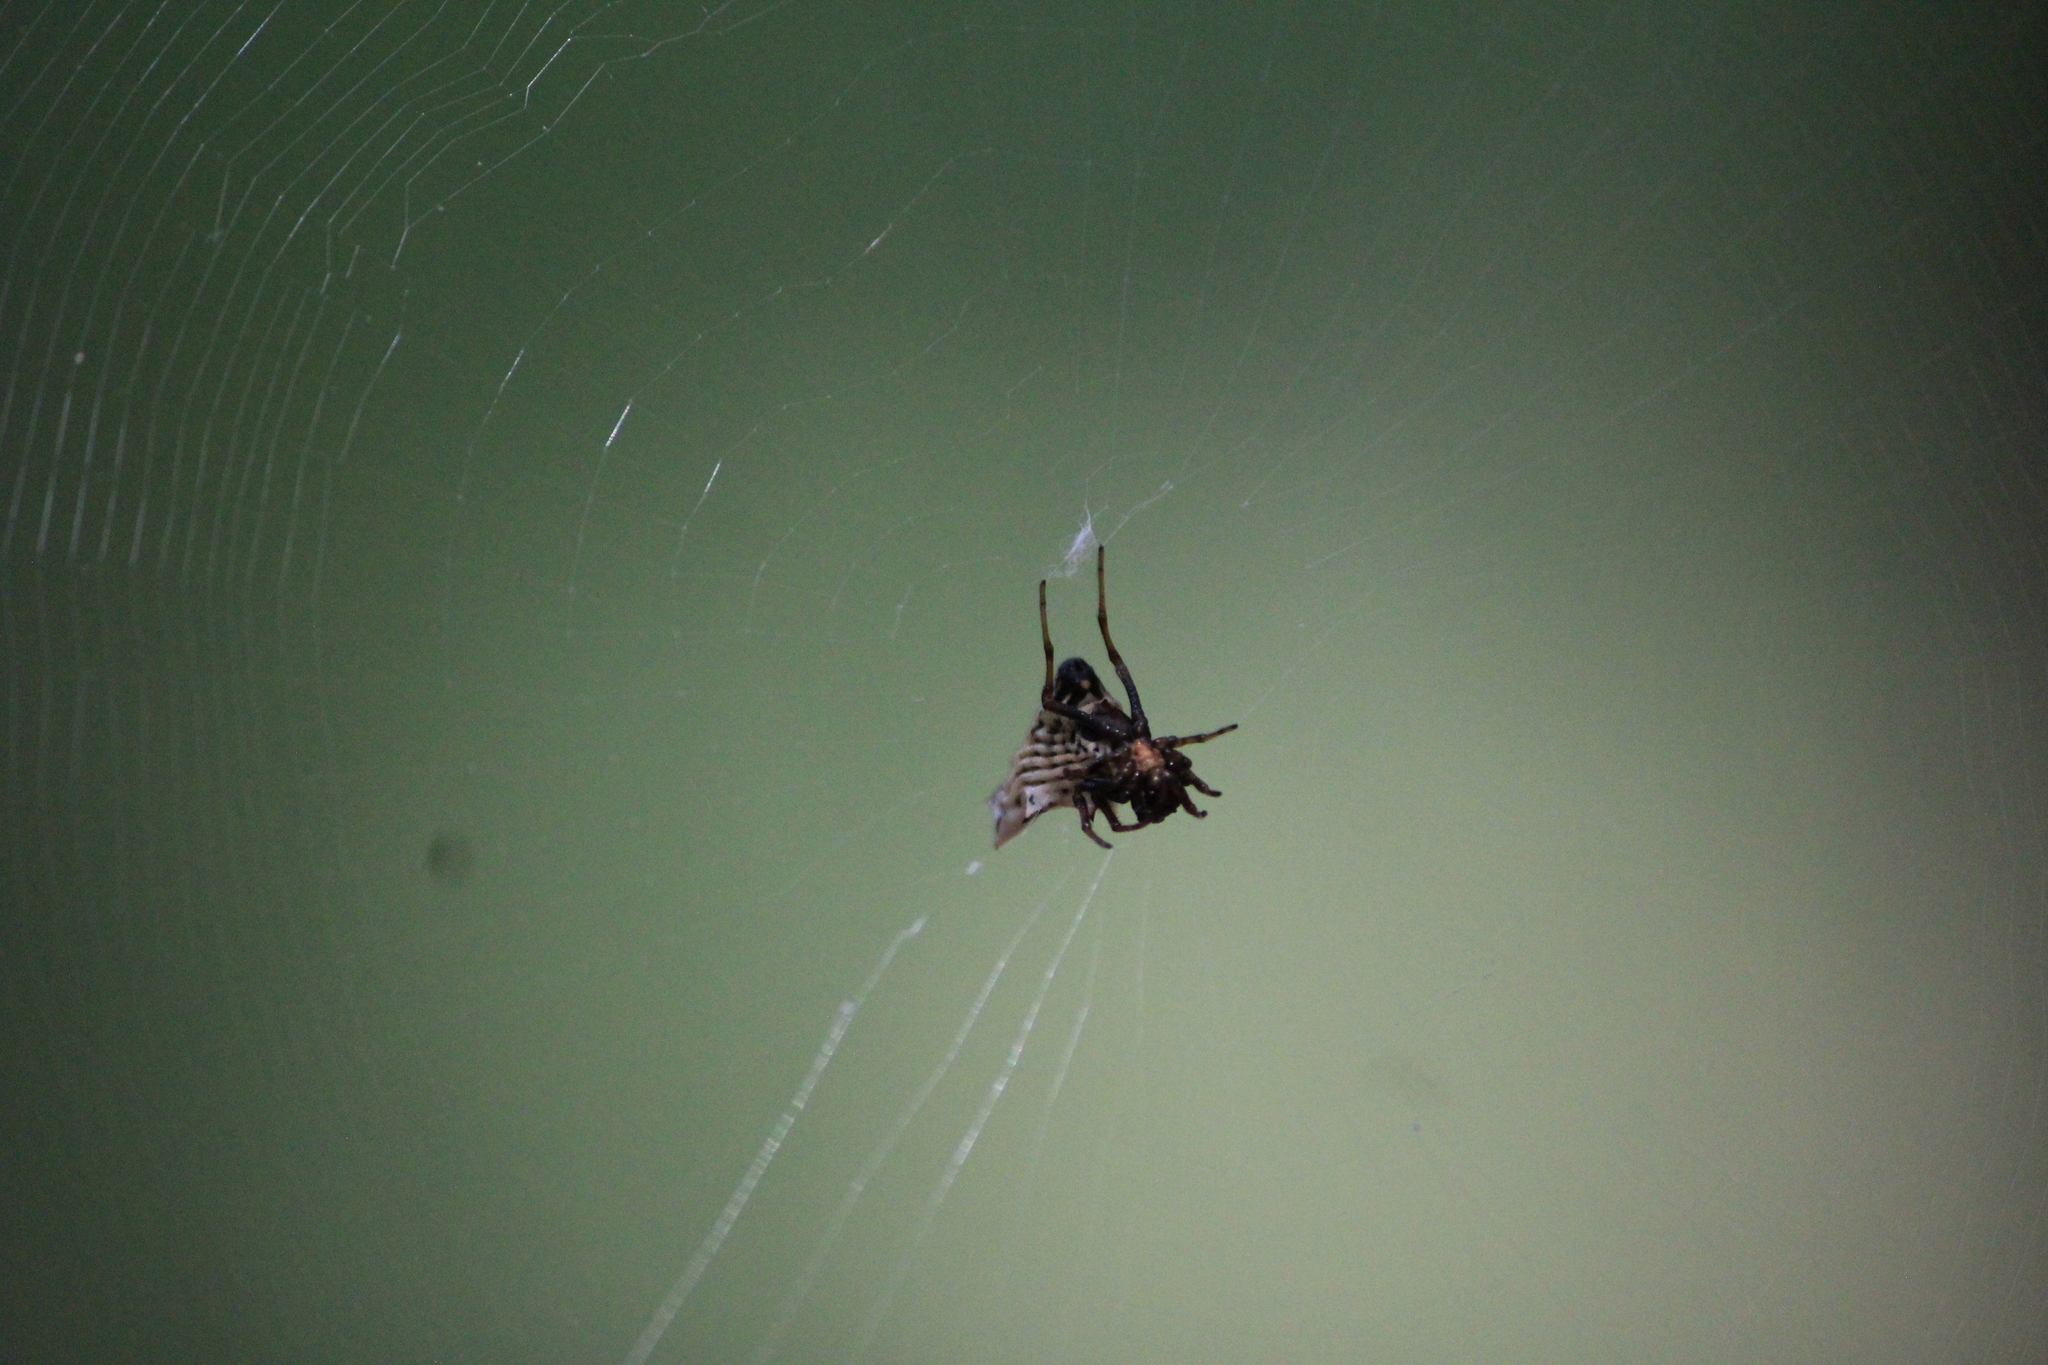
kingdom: Animalia
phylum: Arthropoda
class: Arachnida
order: Araneae
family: Araneidae
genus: Micrathena
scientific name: Micrathena gracilis
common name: Orb weavers
